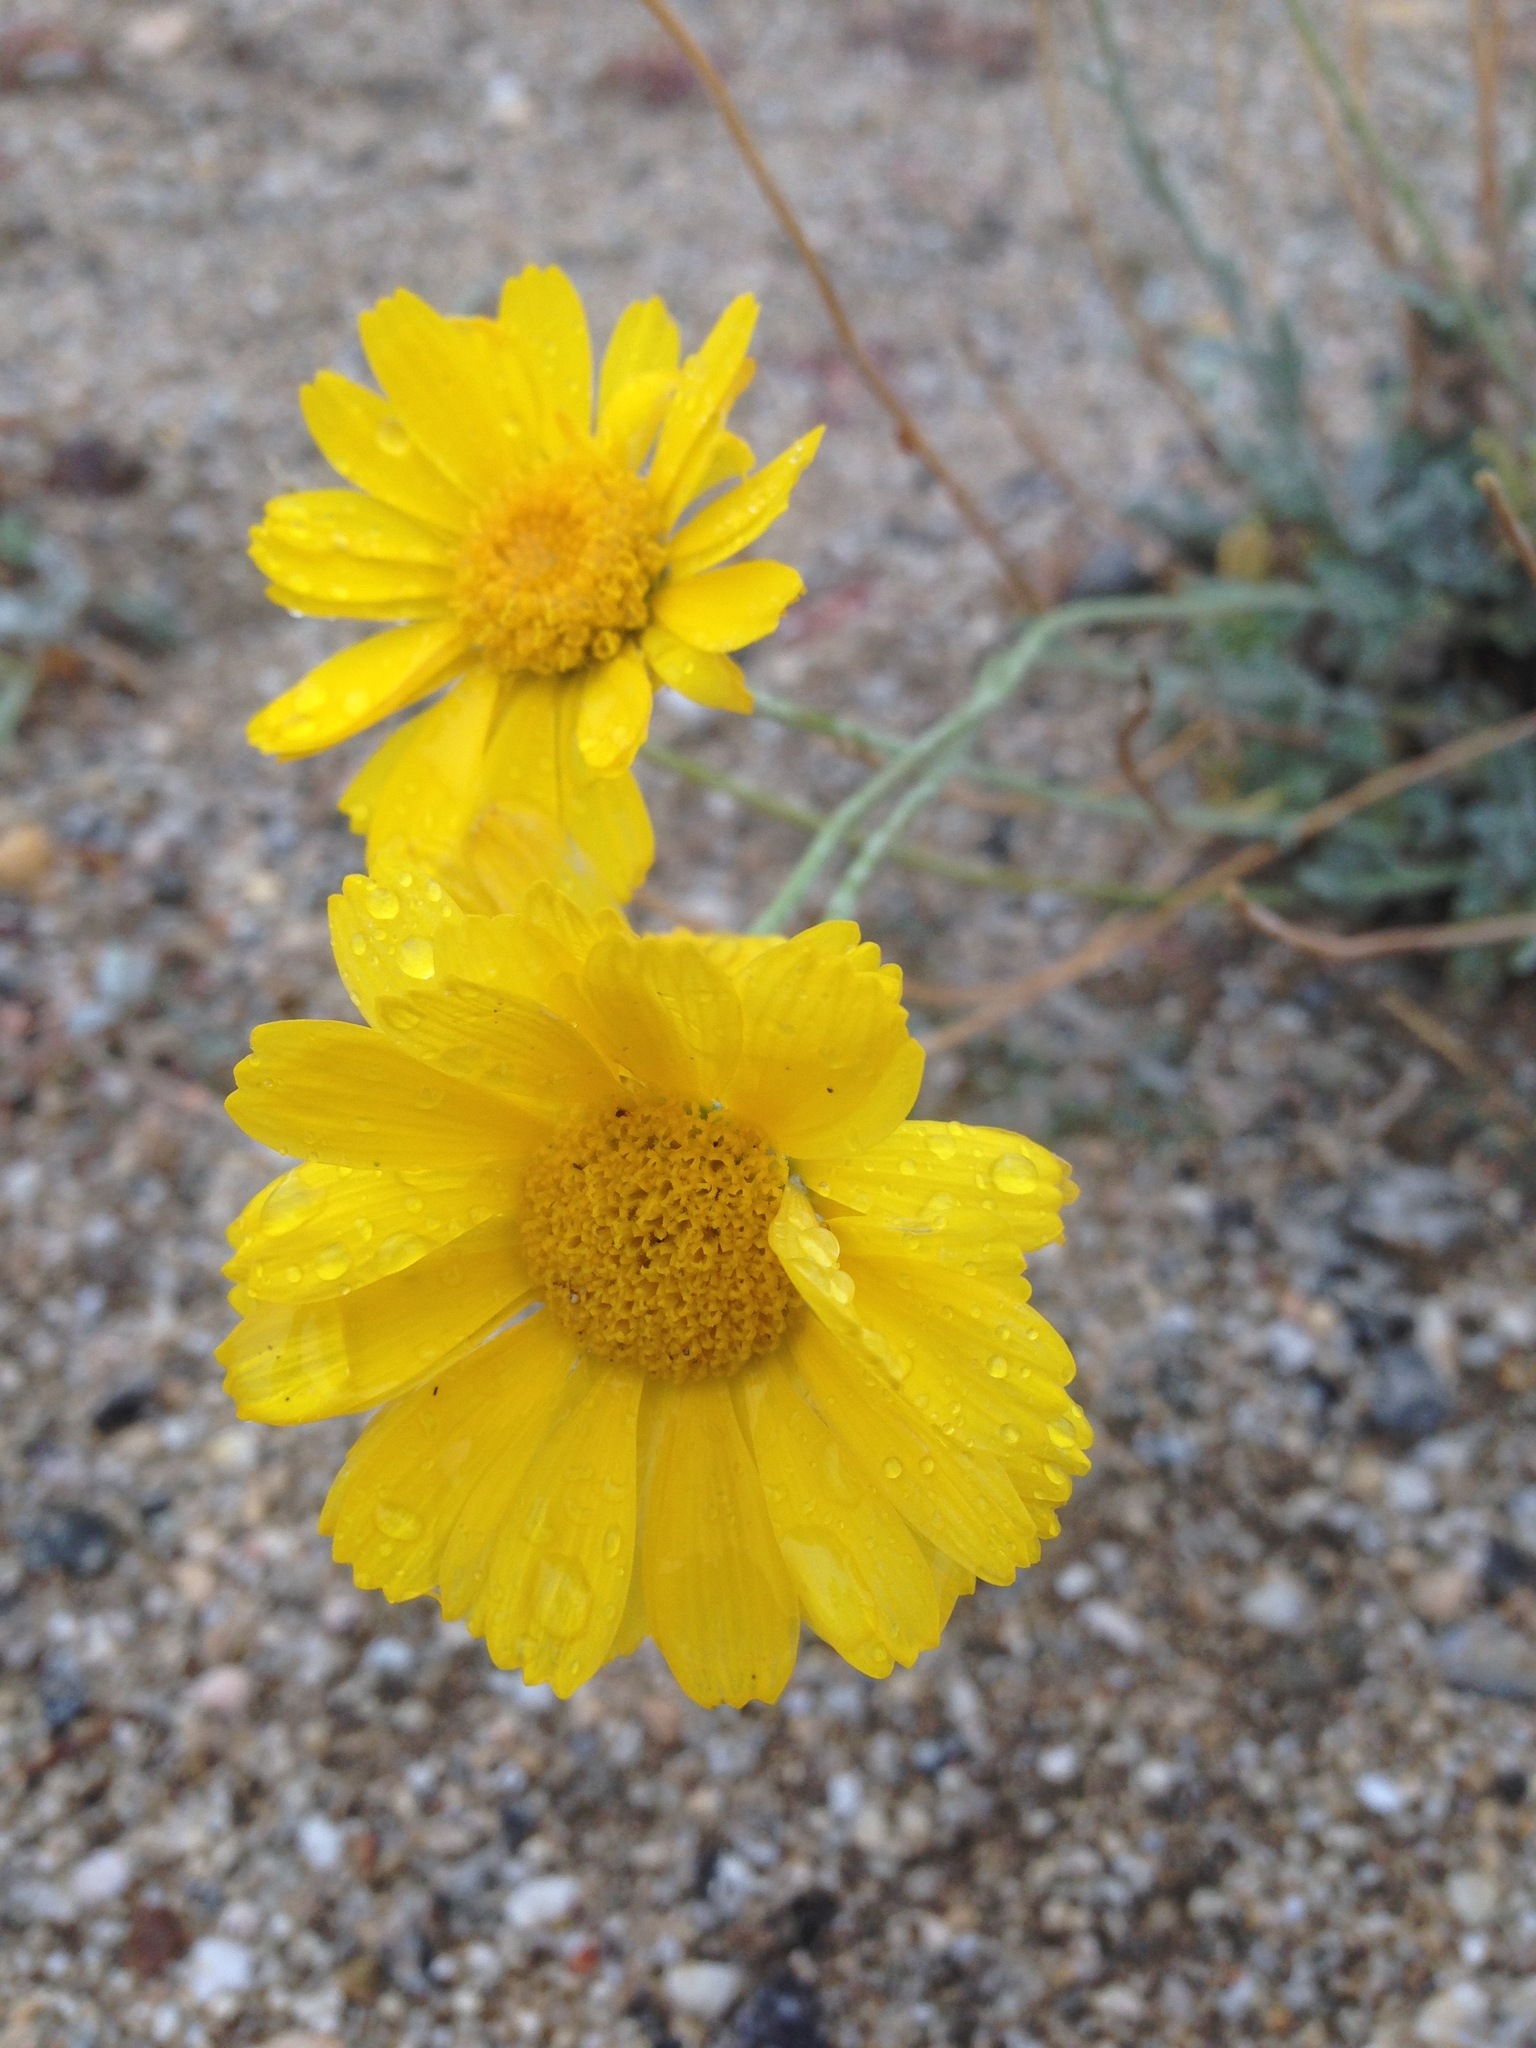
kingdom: Plantae
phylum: Tracheophyta
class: Magnoliopsida
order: Asterales
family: Asteraceae
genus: Baileya
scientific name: Baileya multiradiata
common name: Desert-marigold
